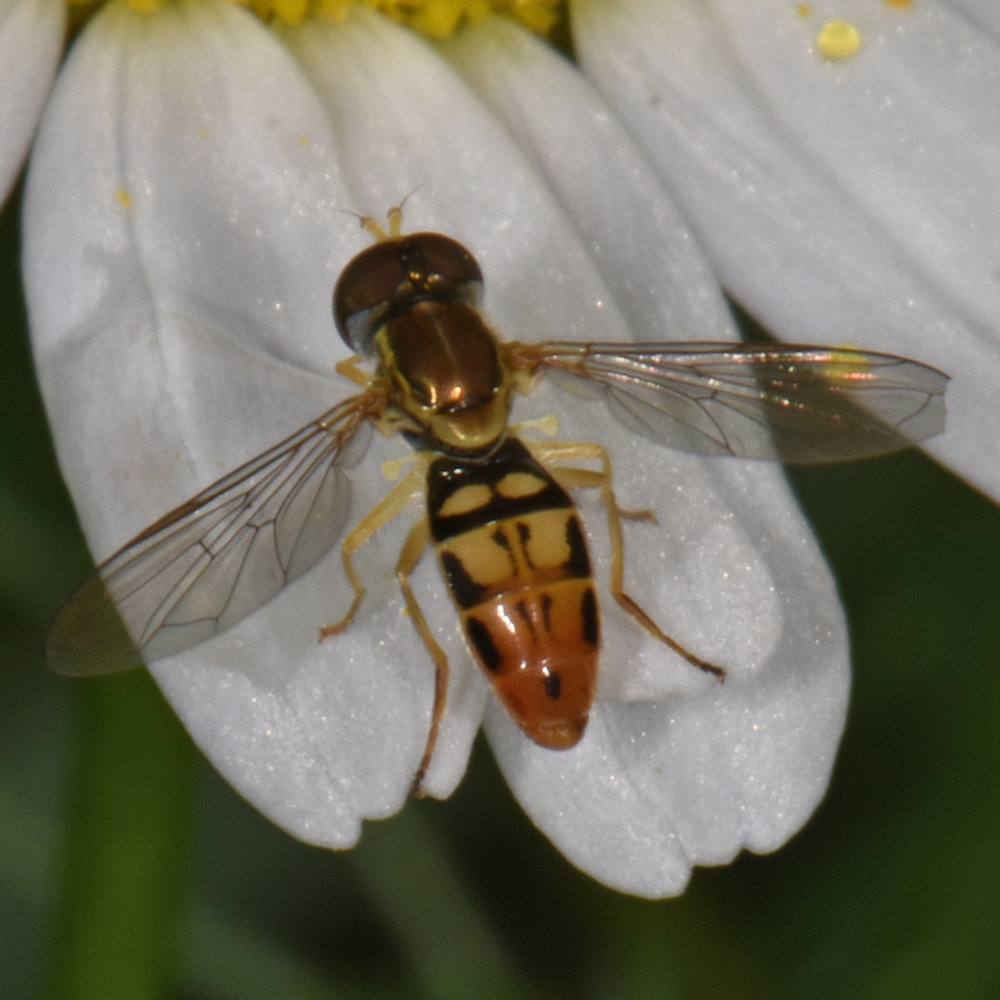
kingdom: Animalia
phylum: Arthropoda
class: Insecta
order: Diptera
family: Syrphidae
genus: Toxomerus
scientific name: Toxomerus marginatus
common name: Syrphid fly
